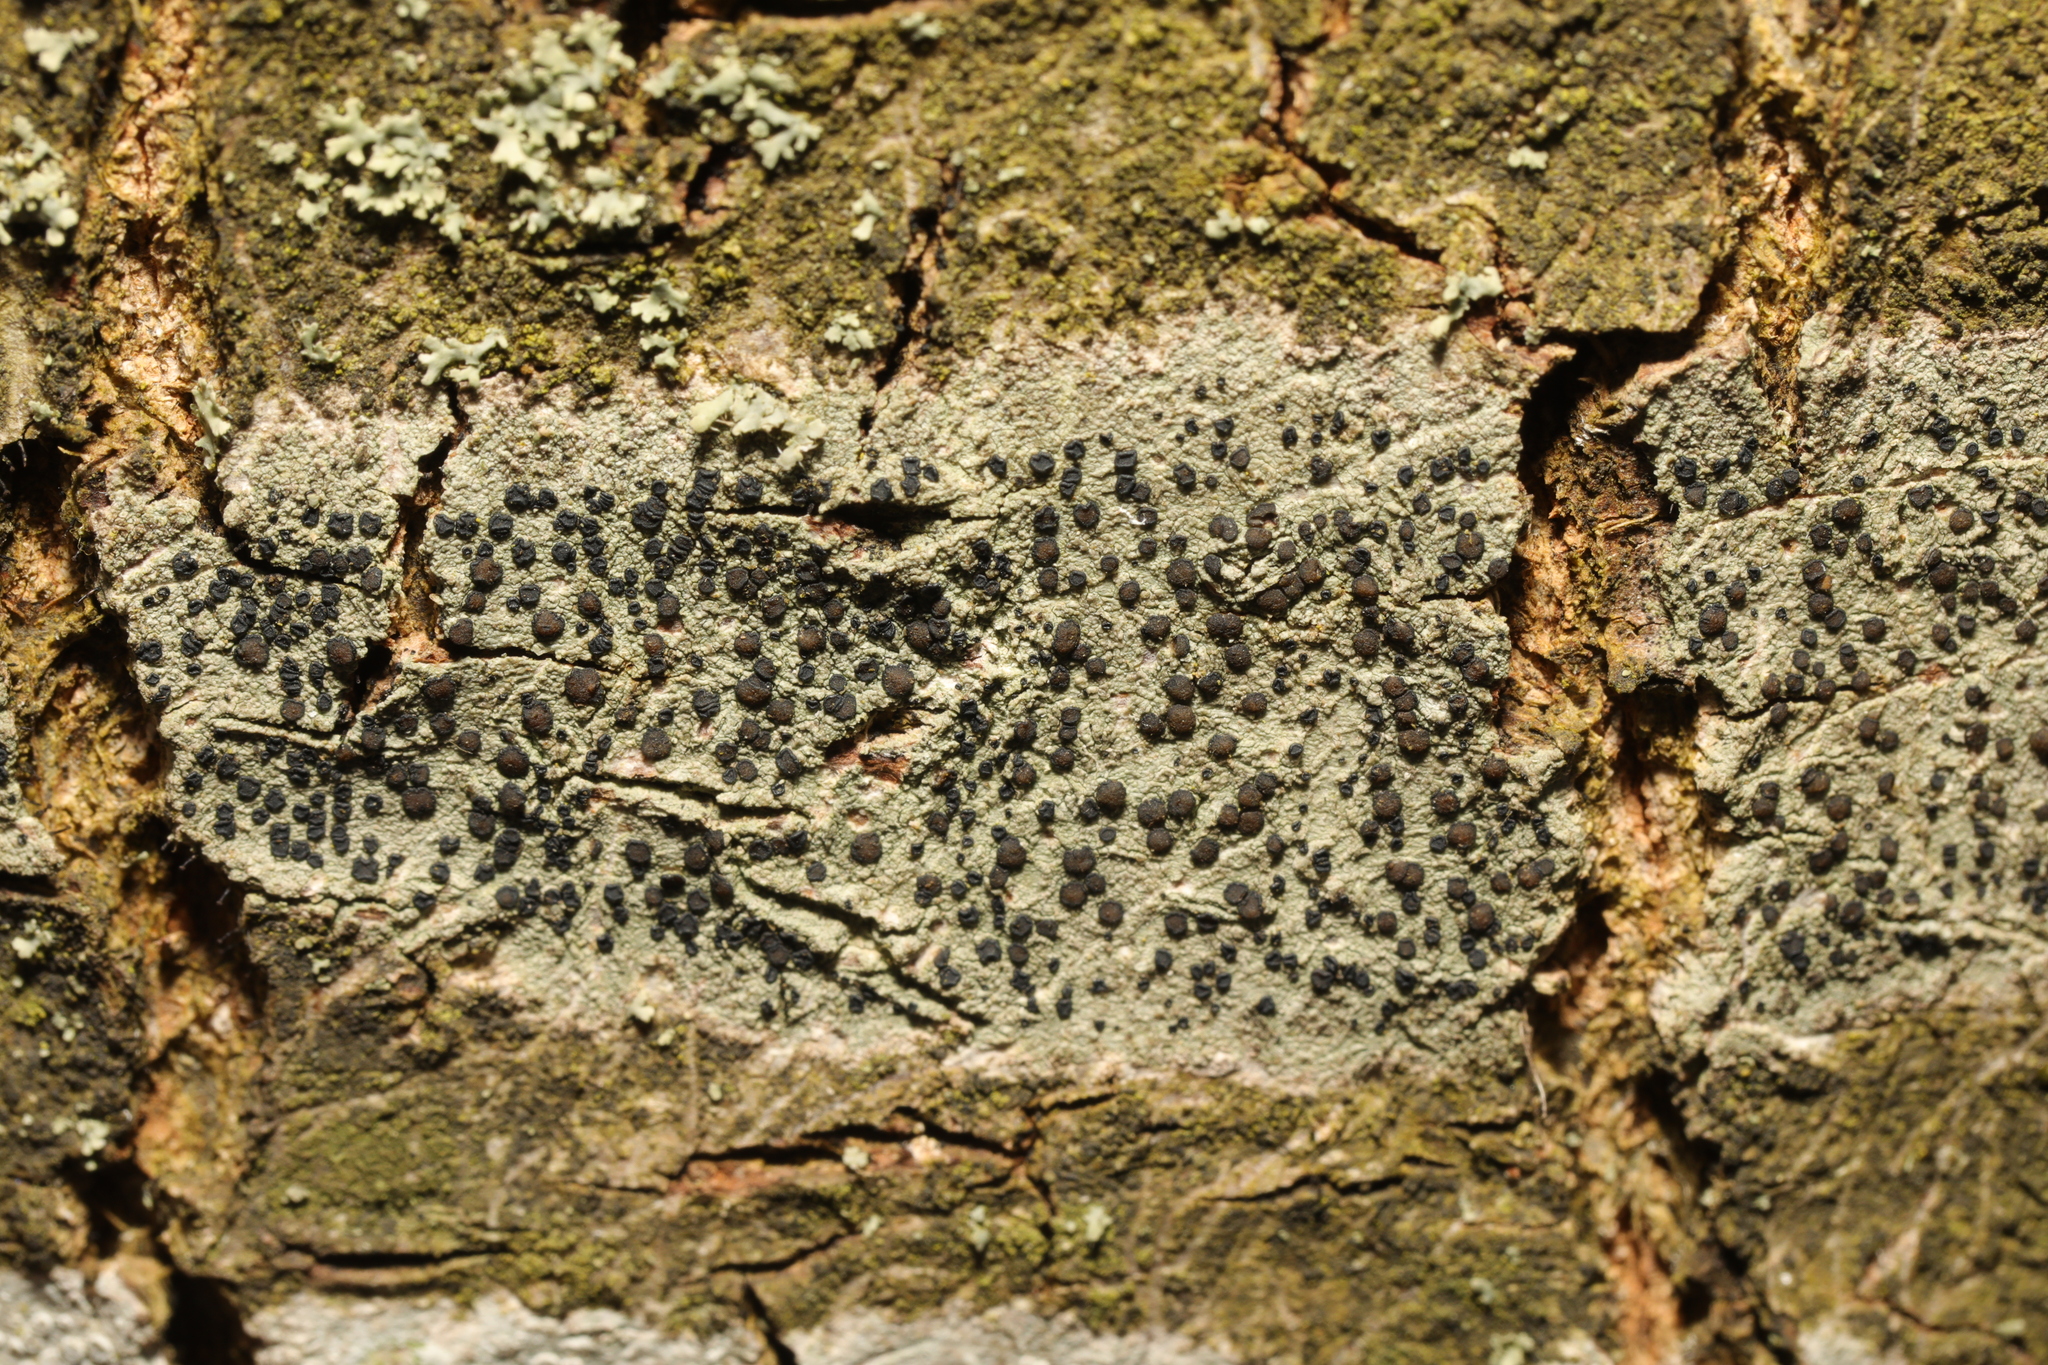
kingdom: Fungi
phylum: Ascomycota
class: Lecanoromycetes
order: Lecanorales
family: Lecanoraceae
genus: Lecidella
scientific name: Lecidella elaeochroma
